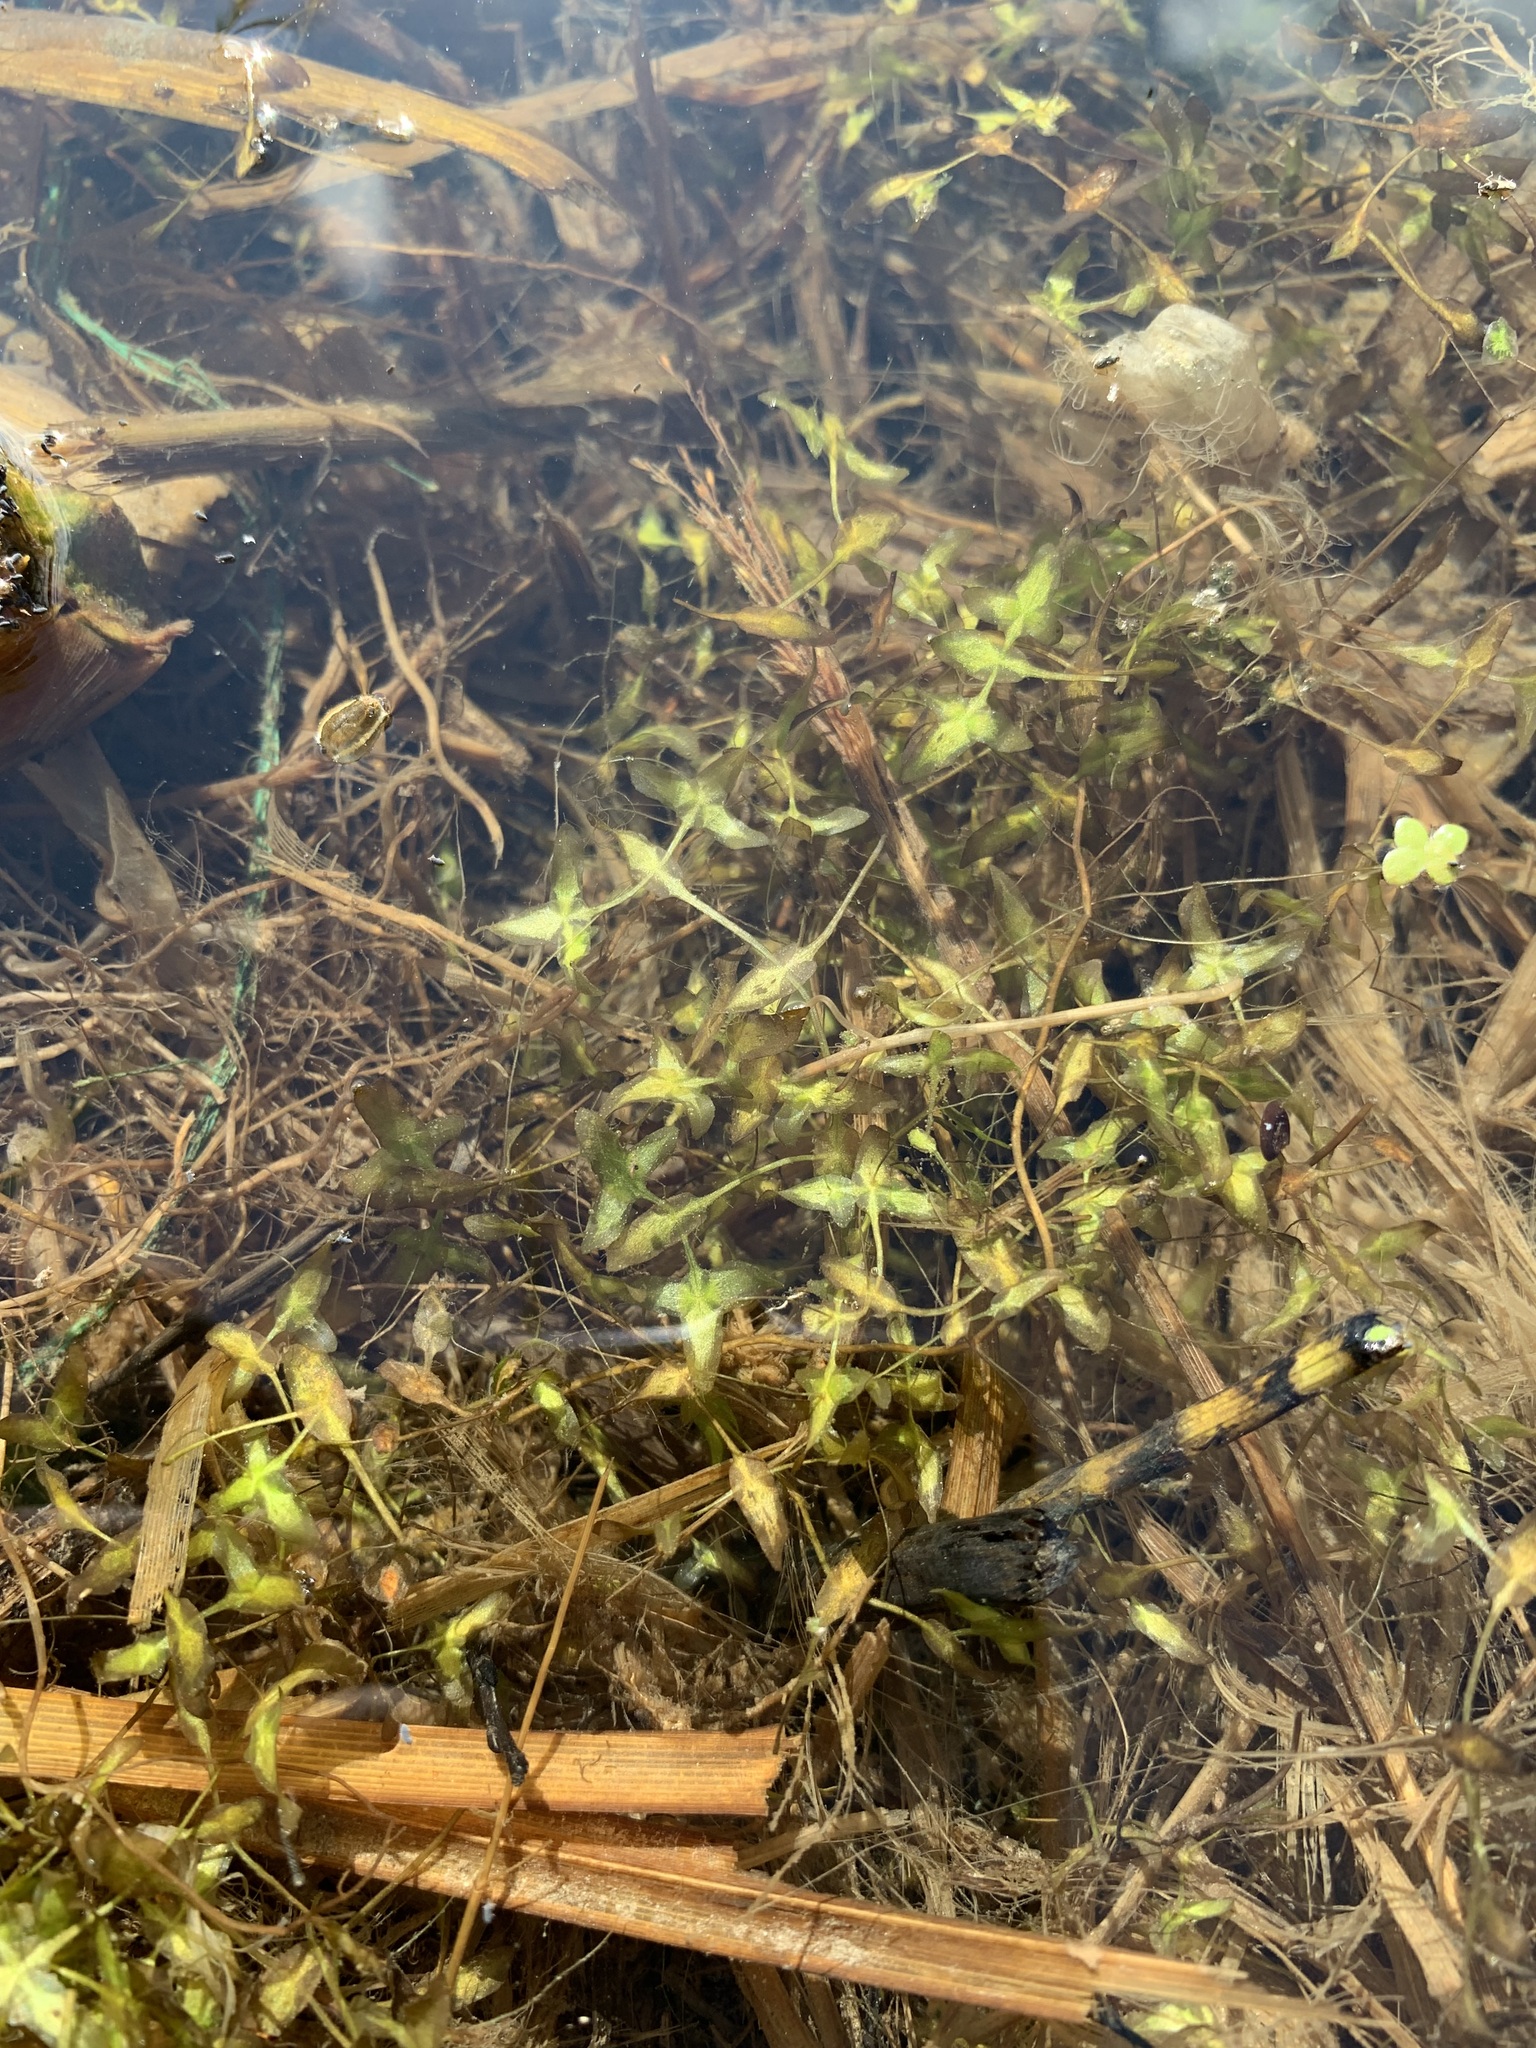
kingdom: Plantae
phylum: Tracheophyta
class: Liliopsida
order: Alismatales
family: Araceae
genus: Lemna
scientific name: Lemna trisulca
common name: Ivy-leaved duckweed
